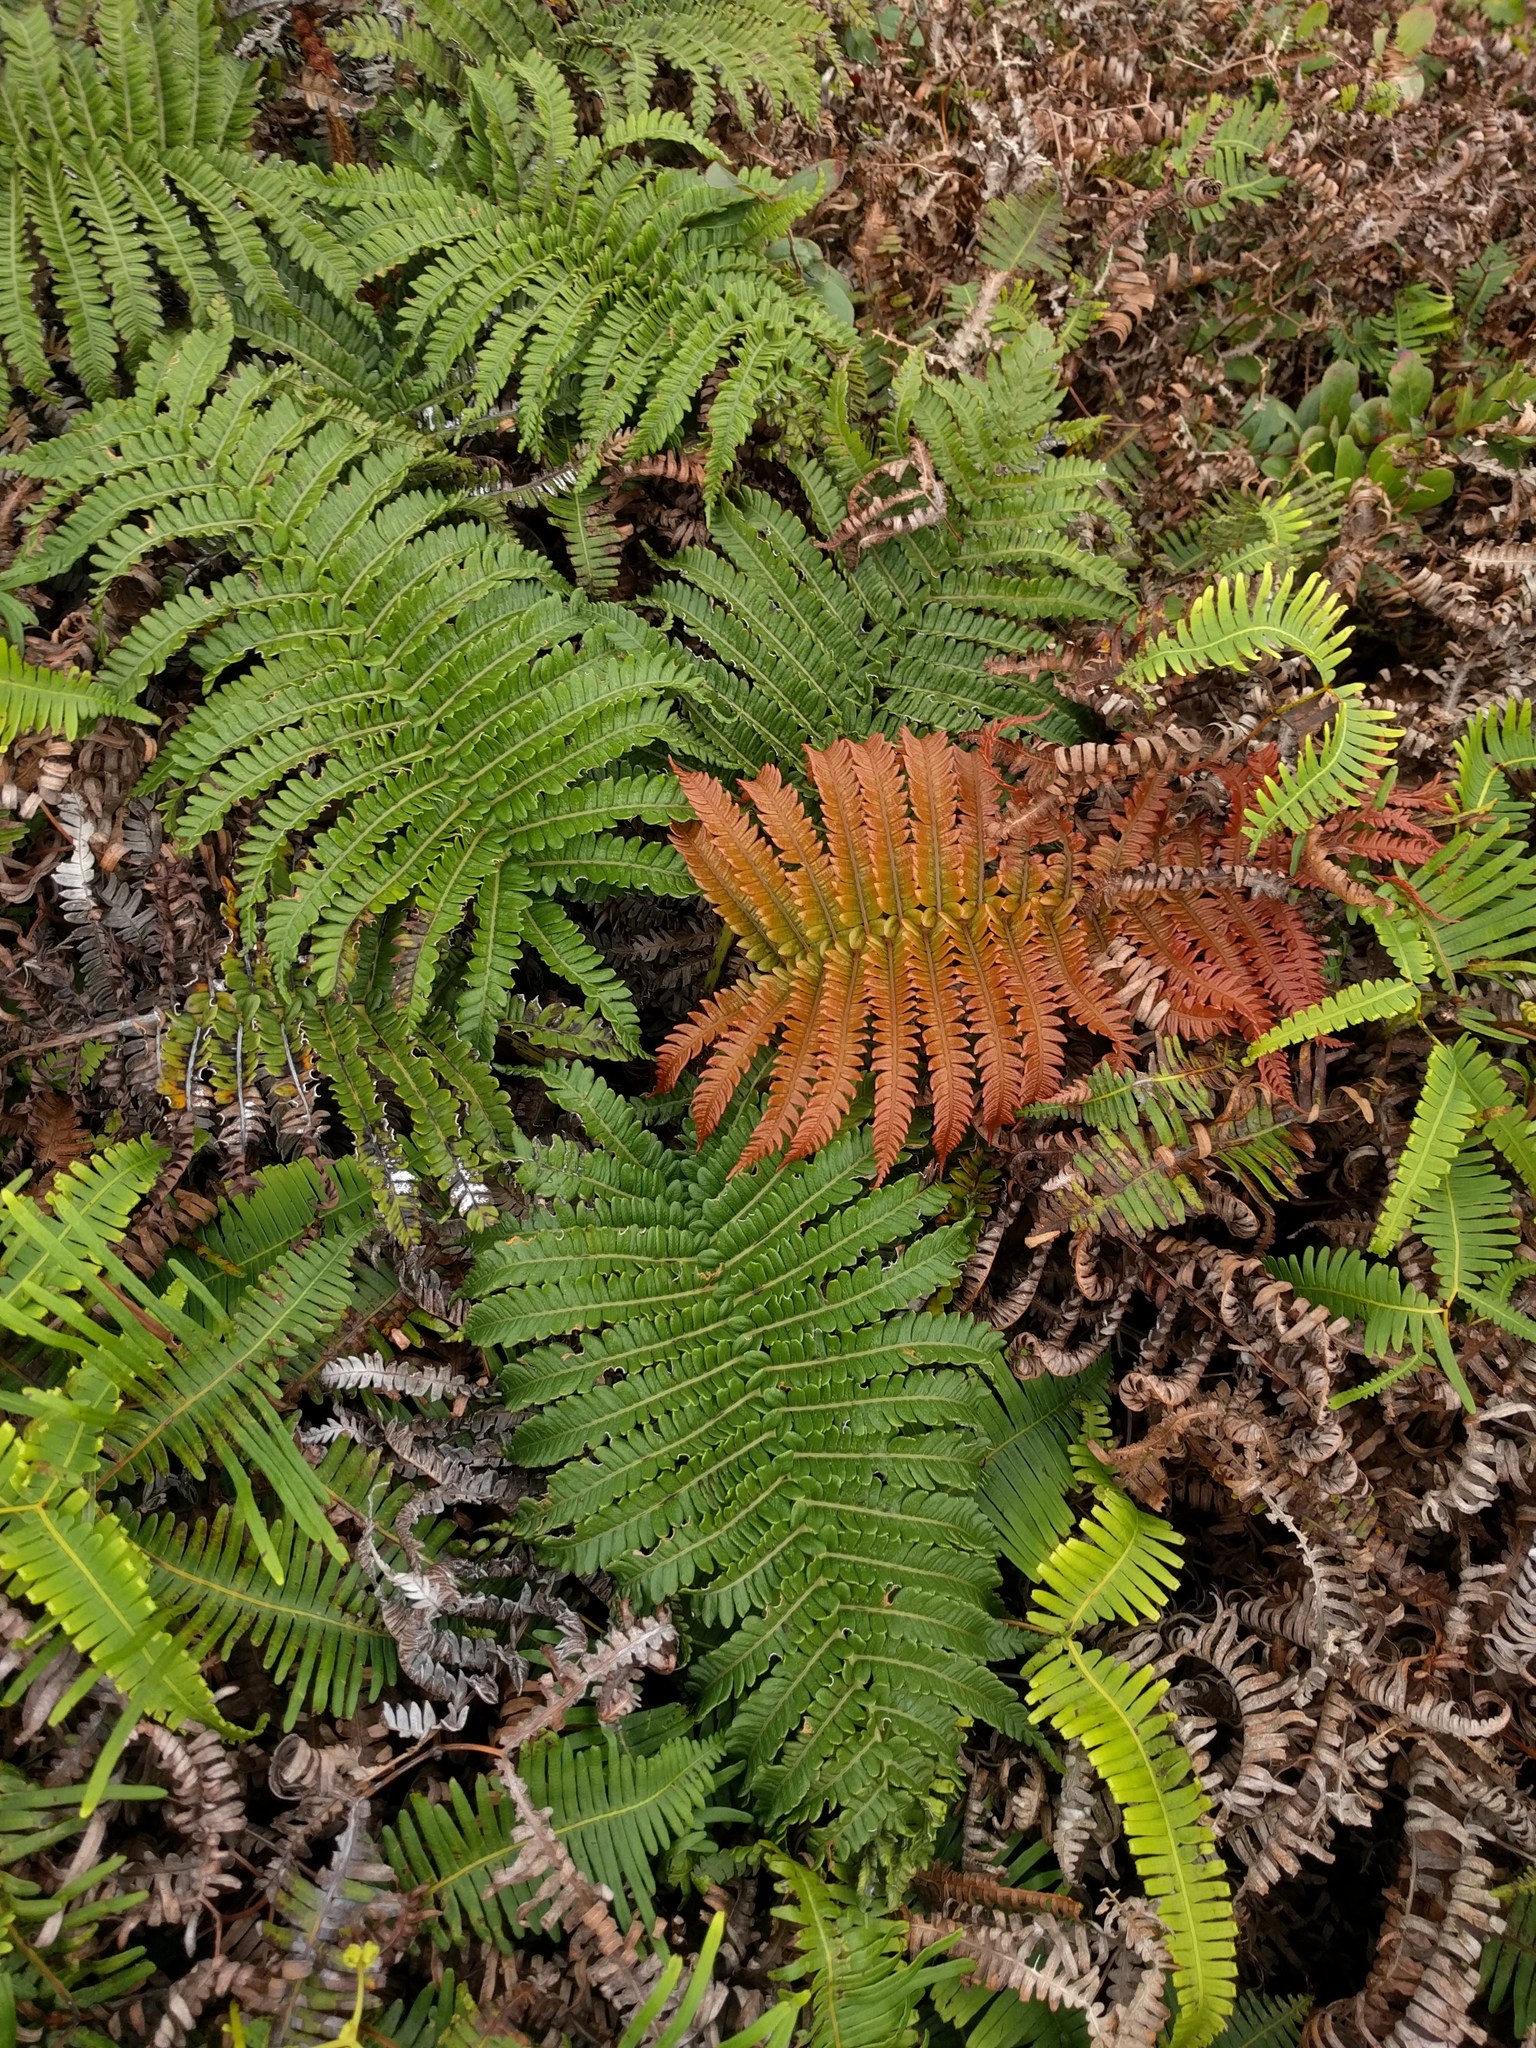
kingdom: Plantae
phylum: Tracheophyta
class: Polypodiopsida
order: Polypodiales
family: Blechnaceae
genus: Sadleria
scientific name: Sadleria pallida
